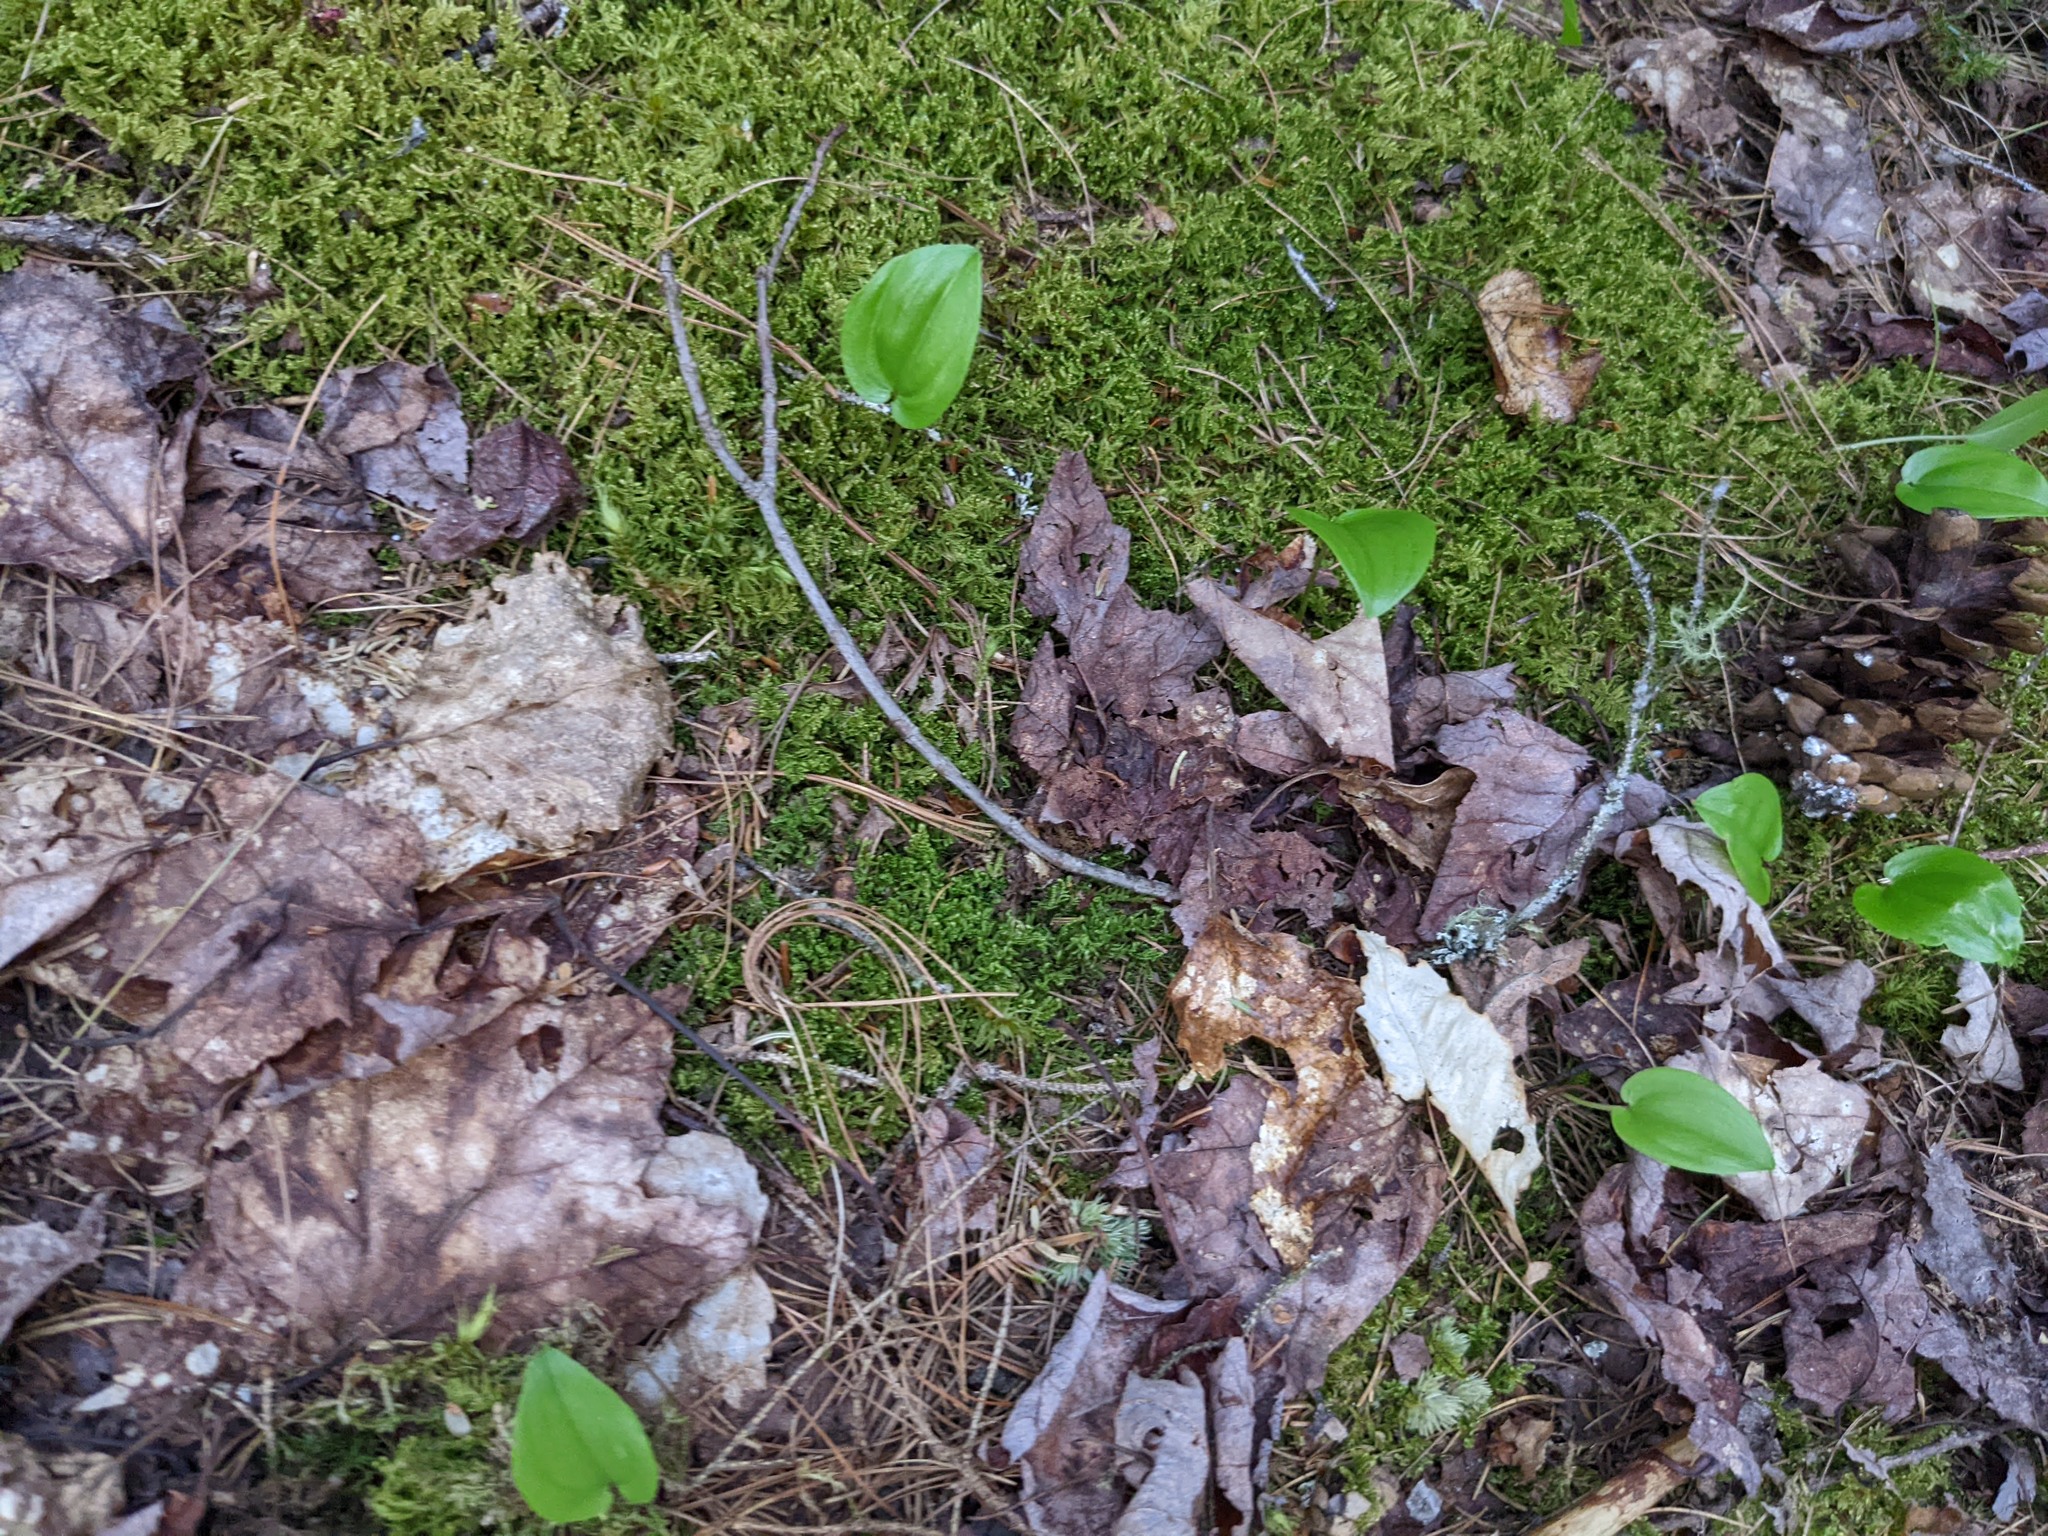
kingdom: Plantae
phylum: Tracheophyta
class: Liliopsida
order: Asparagales
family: Asparagaceae
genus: Maianthemum
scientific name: Maianthemum canadense
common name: False lily-of-the-valley
